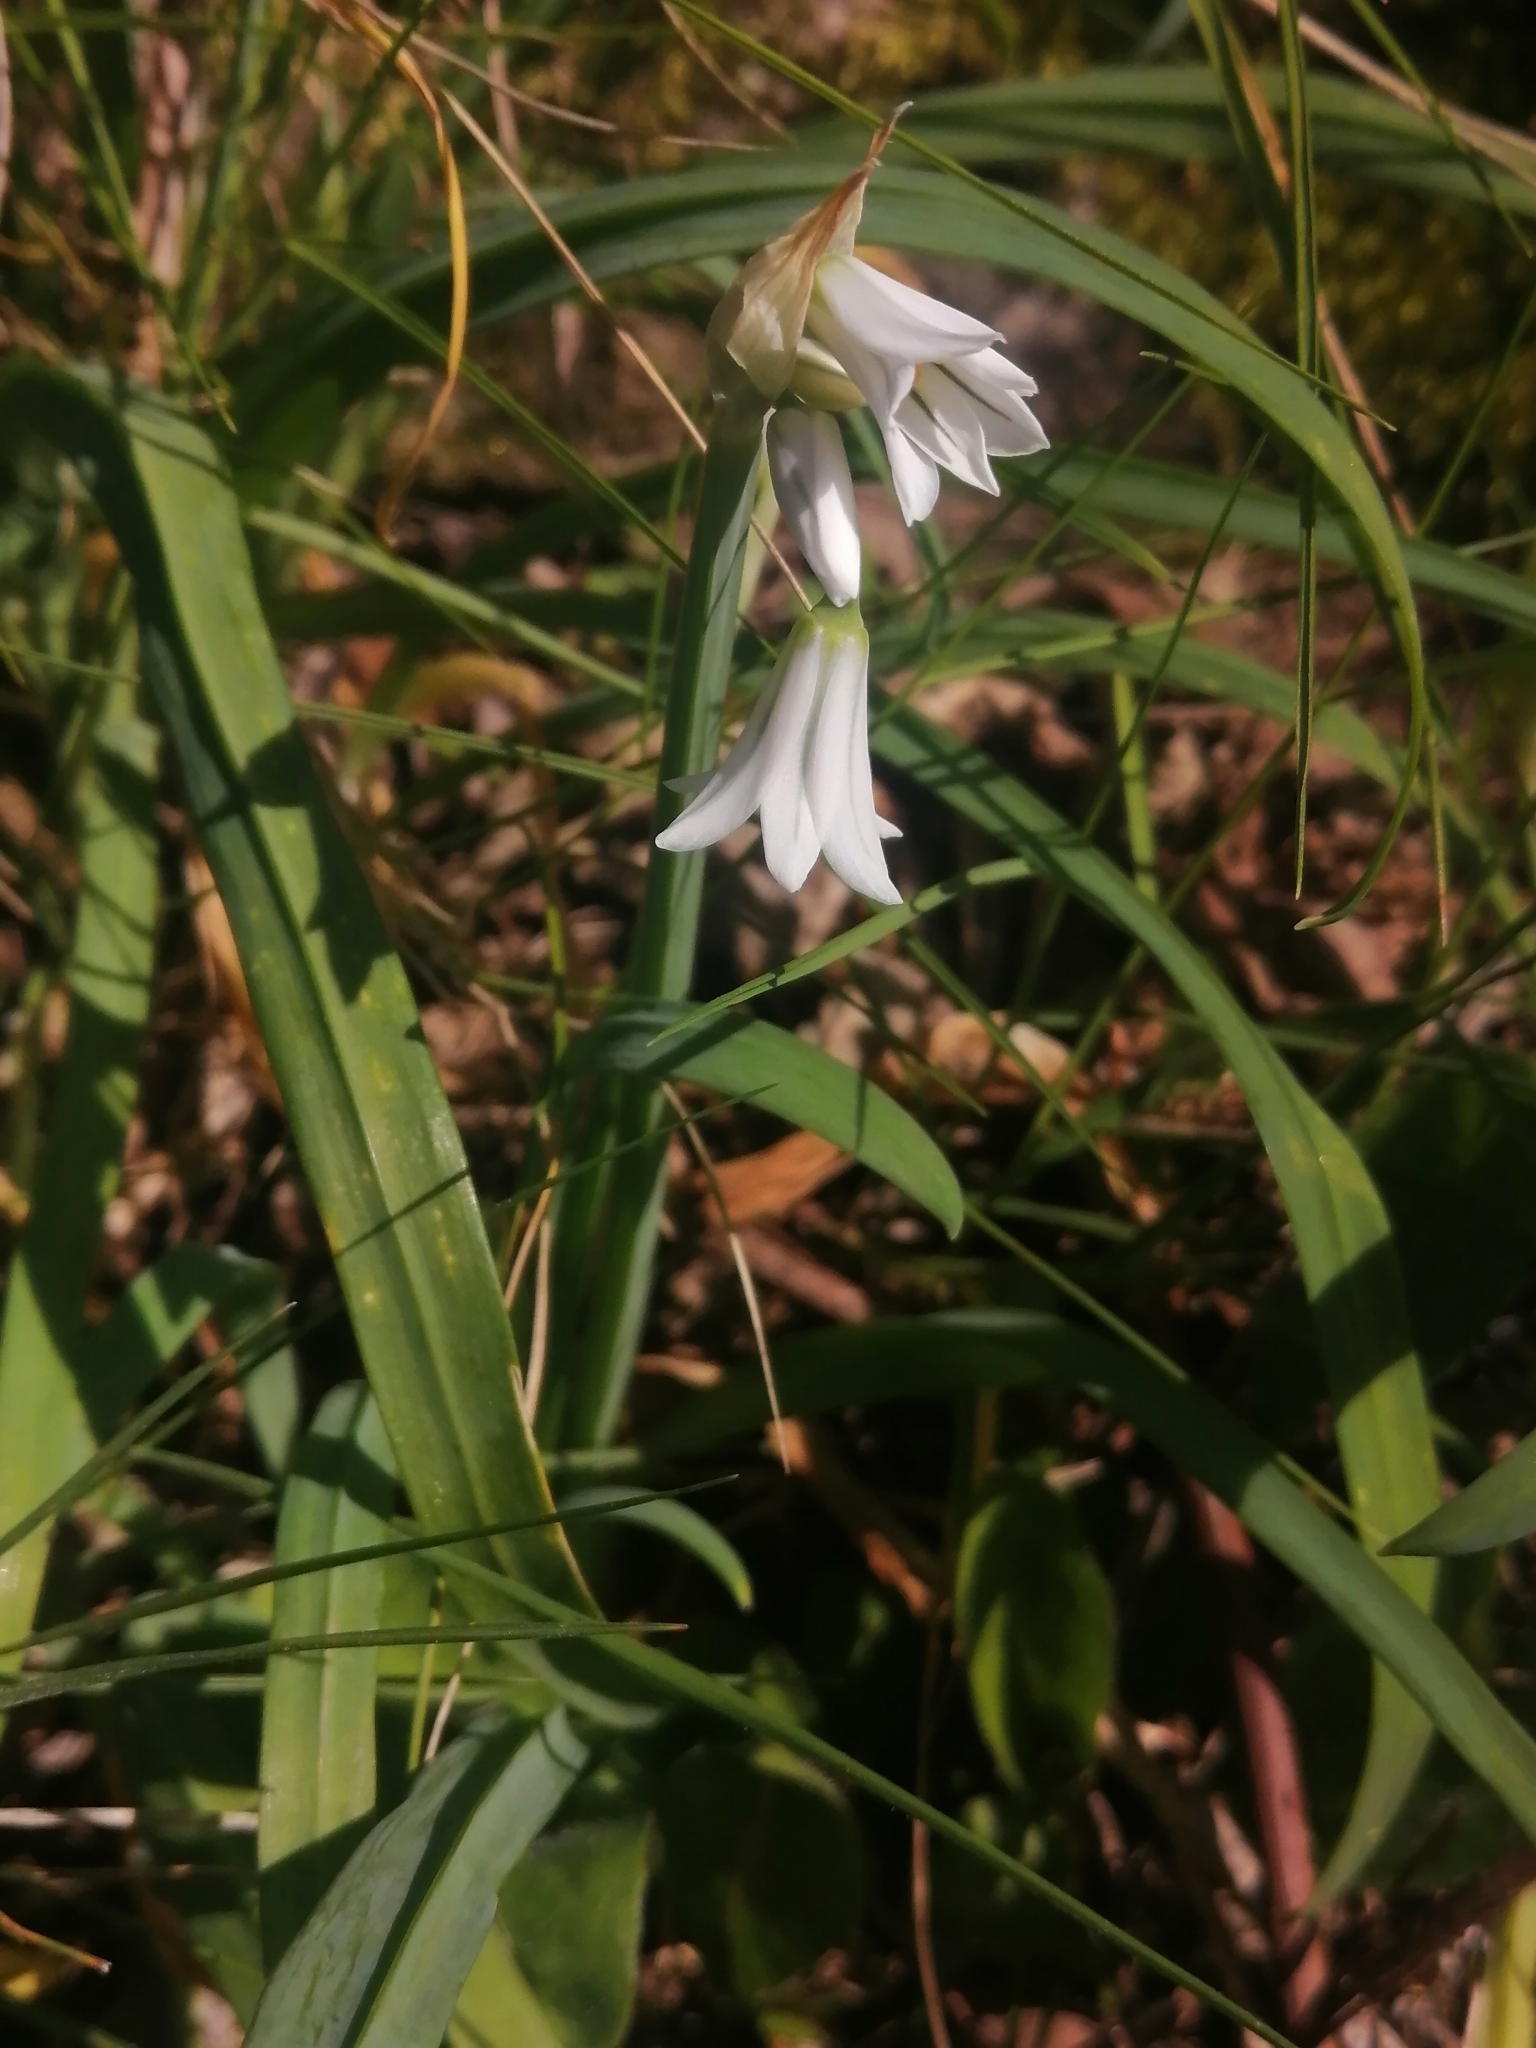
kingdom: Plantae
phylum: Tracheophyta
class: Liliopsida
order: Asparagales
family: Amaryllidaceae
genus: Allium
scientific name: Allium triquetrum
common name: Three-cornered garlic
